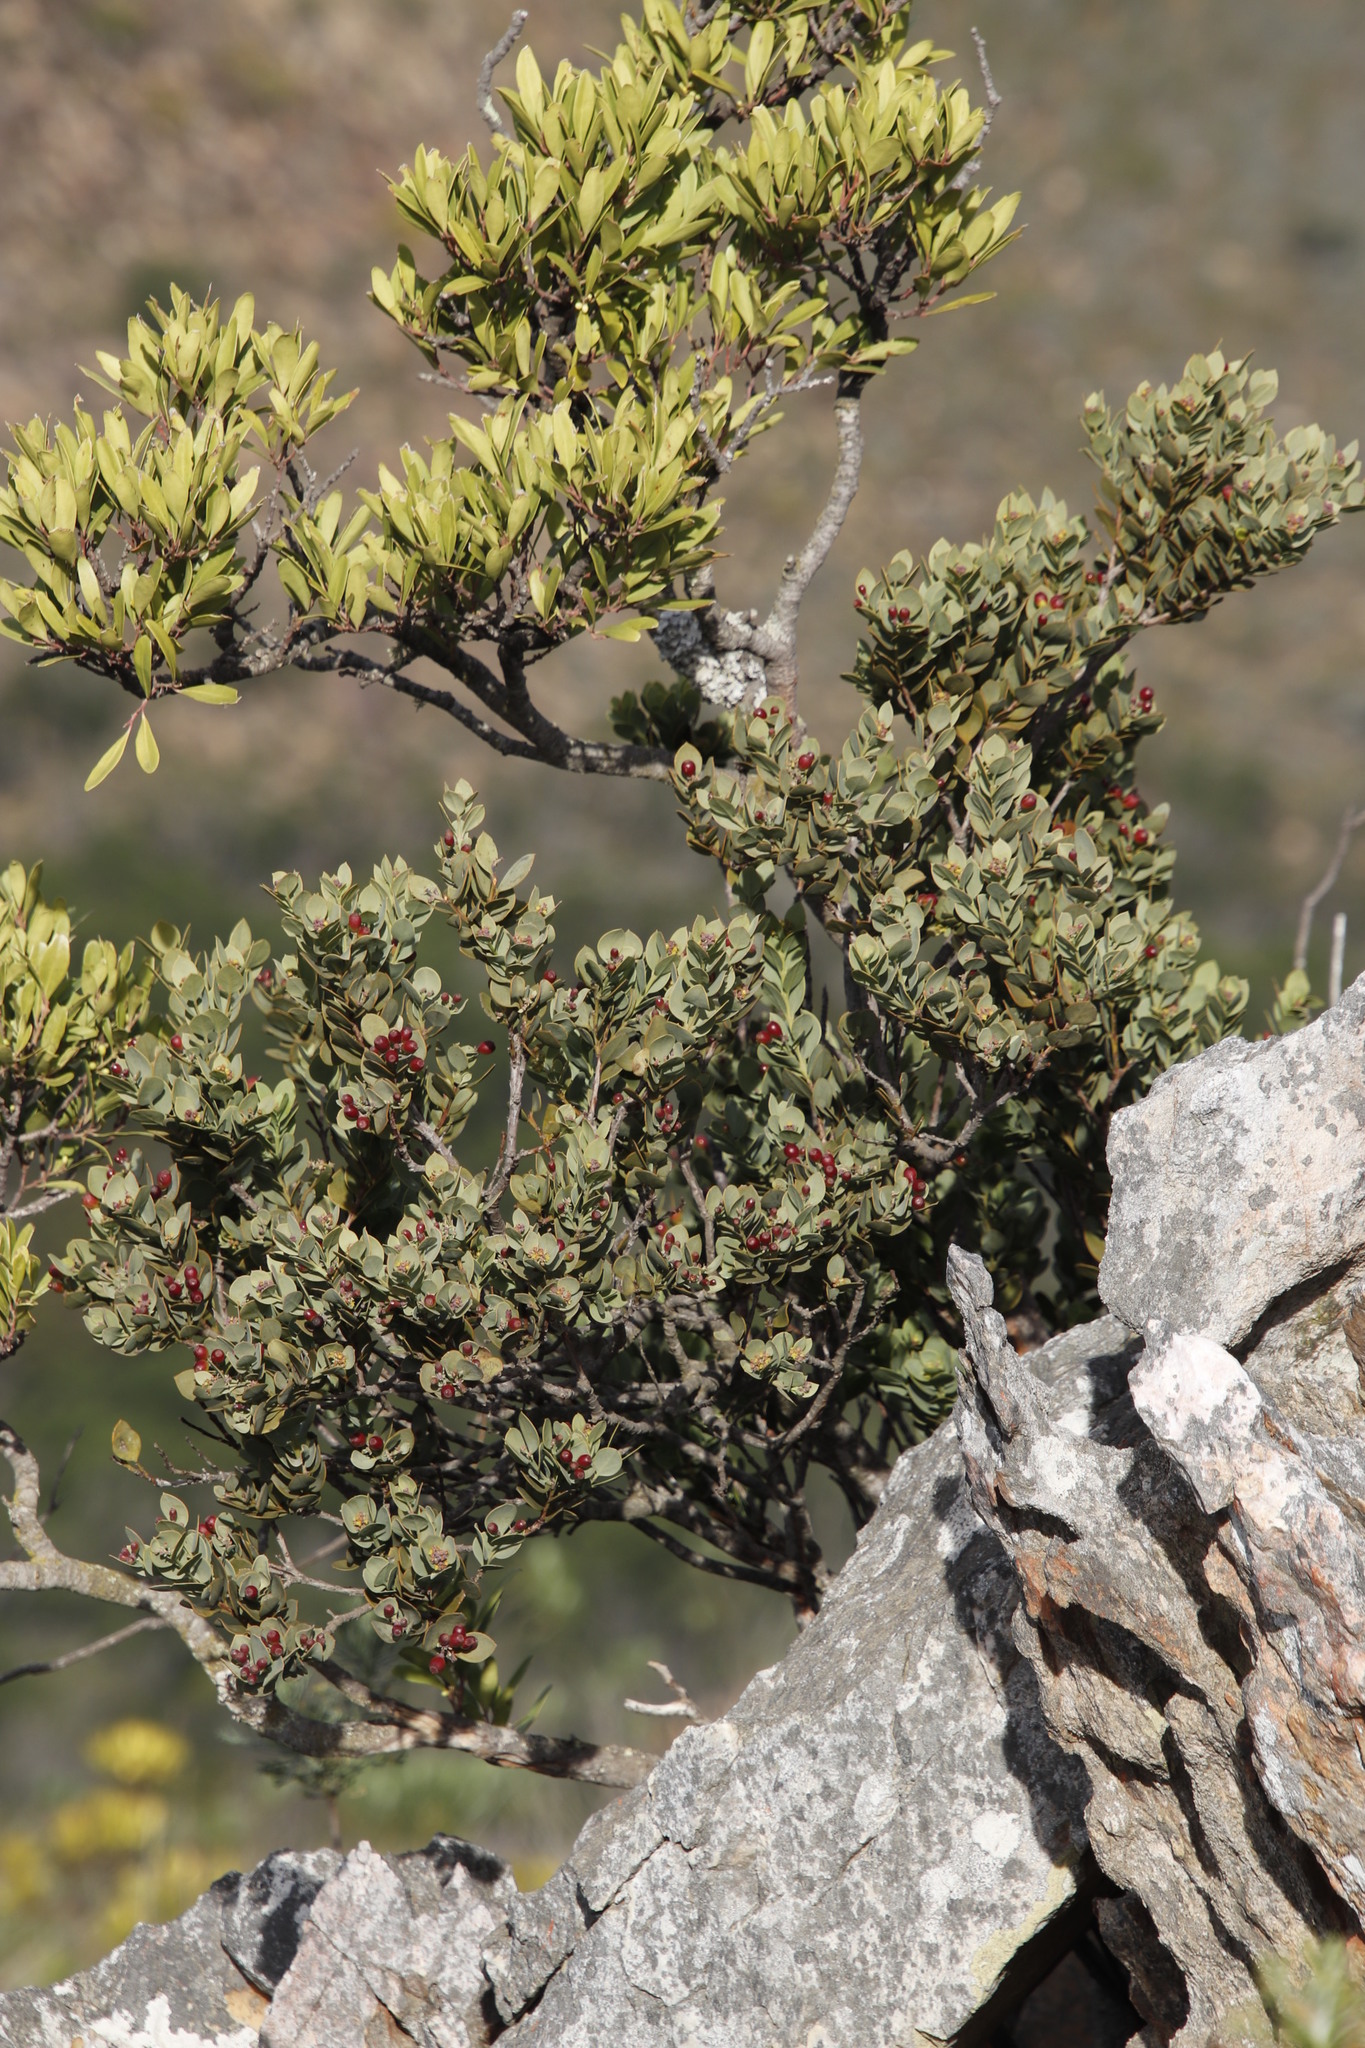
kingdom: Plantae
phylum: Tracheophyta
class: Magnoliopsida
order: Santalales
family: Santalaceae
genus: Osyris
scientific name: Osyris compressa
